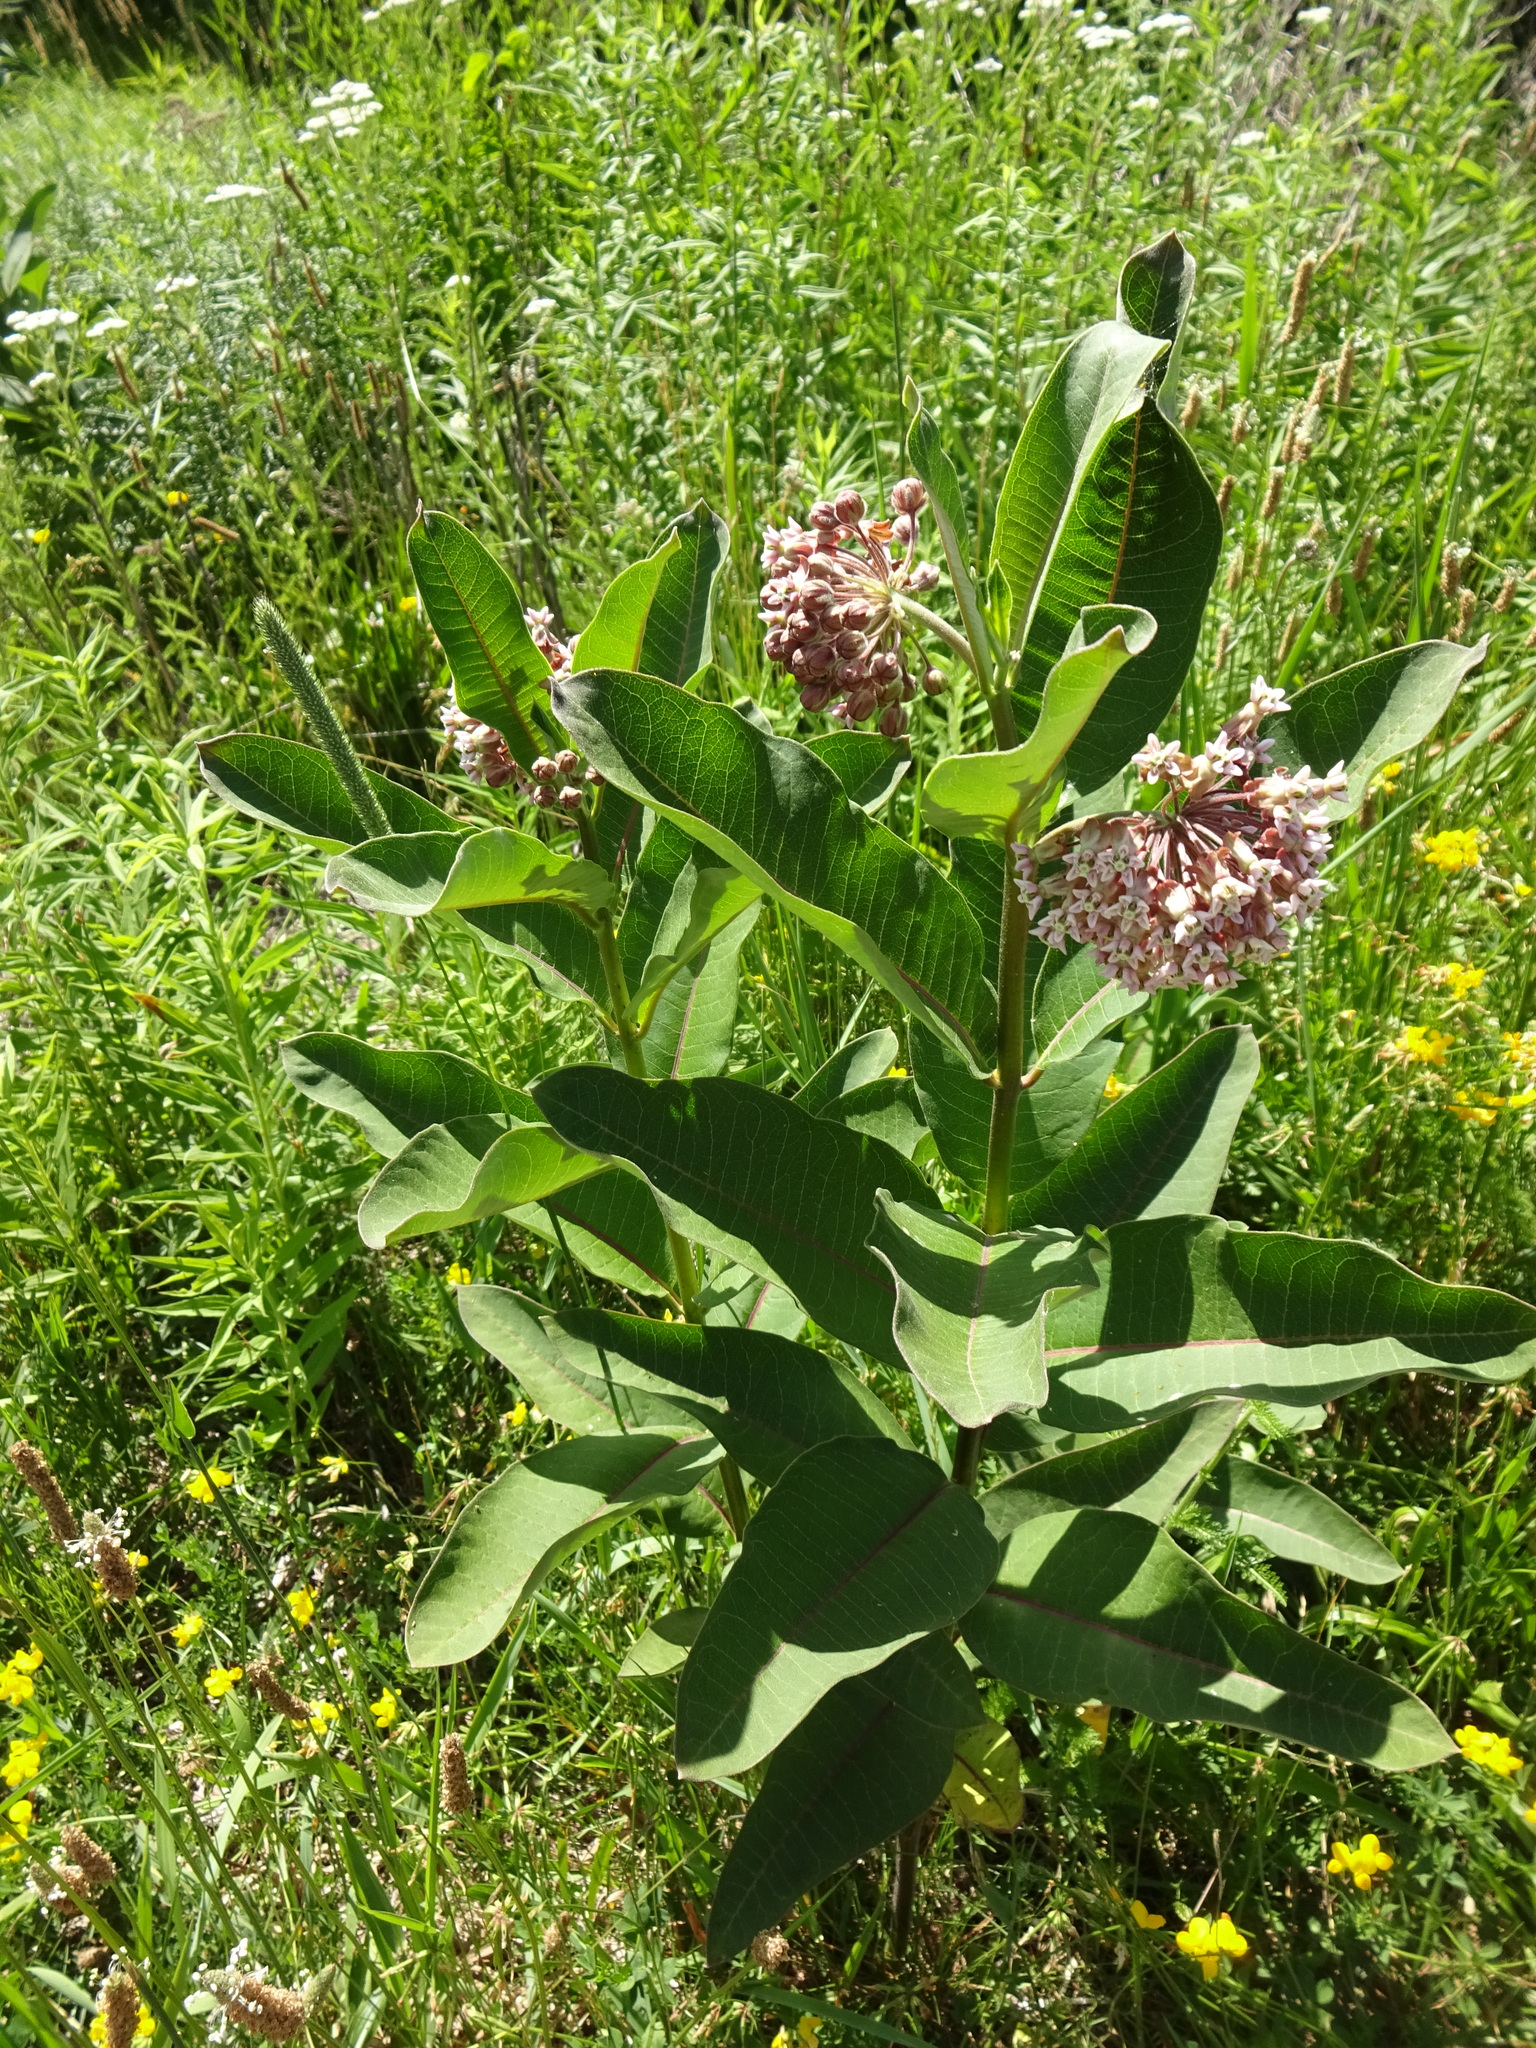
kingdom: Plantae
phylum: Tracheophyta
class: Magnoliopsida
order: Gentianales
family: Apocynaceae
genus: Asclepias
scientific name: Asclepias syriaca
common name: Common milkweed
